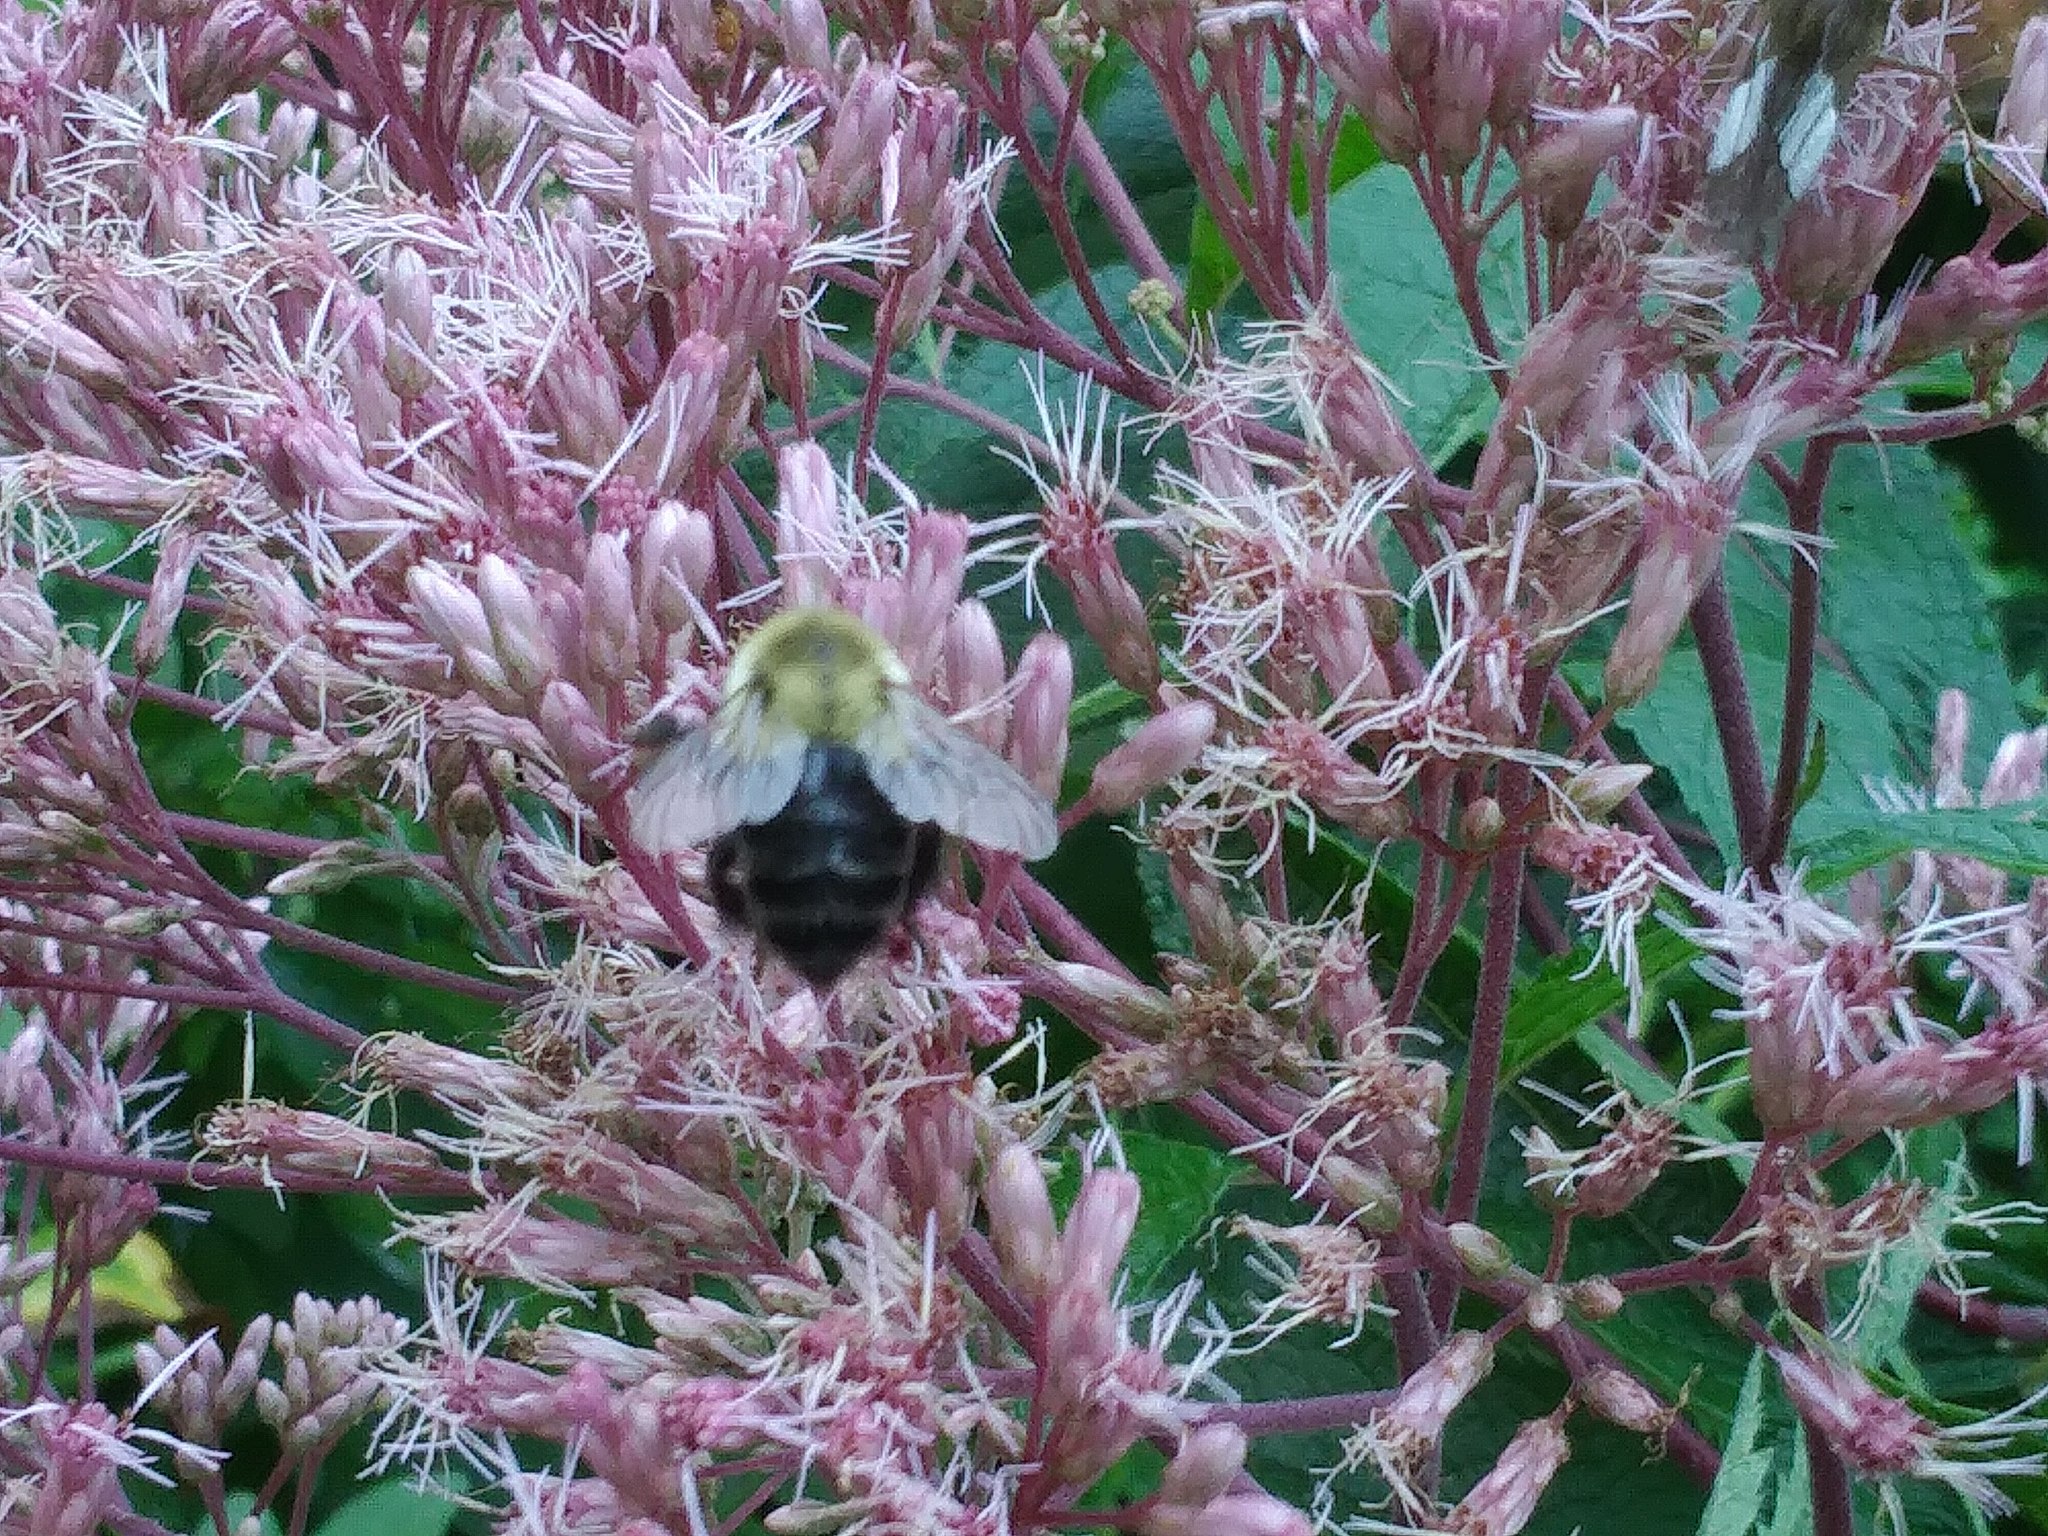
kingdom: Animalia
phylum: Arthropoda
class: Insecta
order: Hymenoptera
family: Apidae
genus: Bombus
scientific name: Bombus impatiens
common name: Common eastern bumble bee
